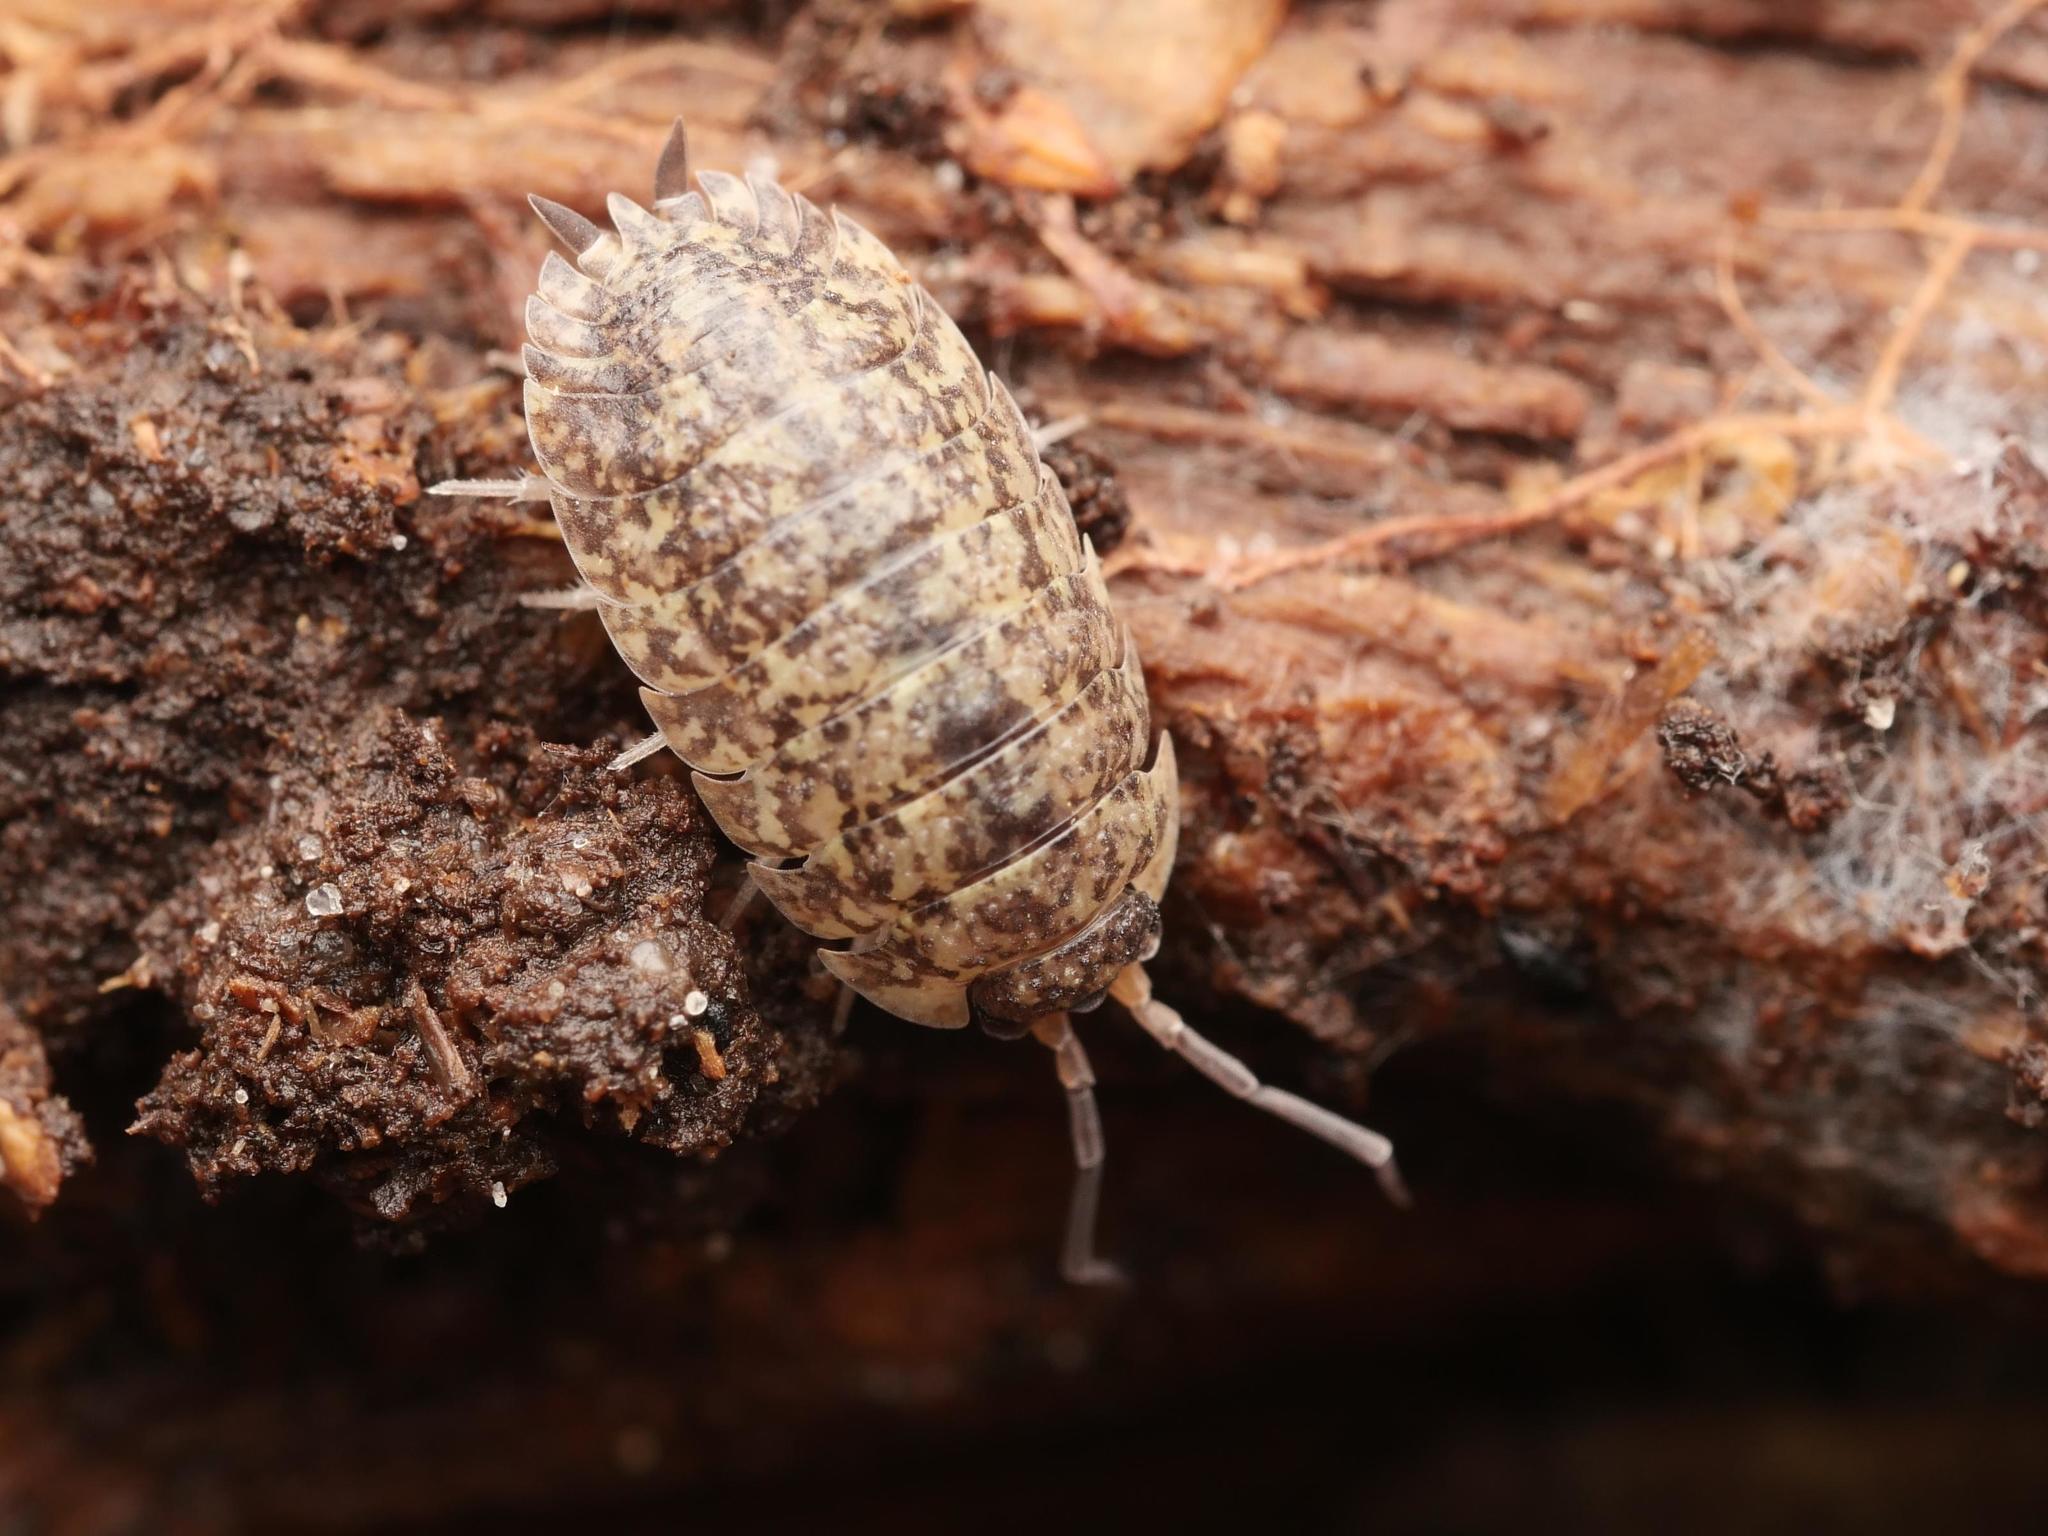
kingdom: Animalia
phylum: Arthropoda
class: Malacostraca
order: Isopoda
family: Porcellionidae
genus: Porcellio
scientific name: Porcellio scaber
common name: Common rough woodlouse
